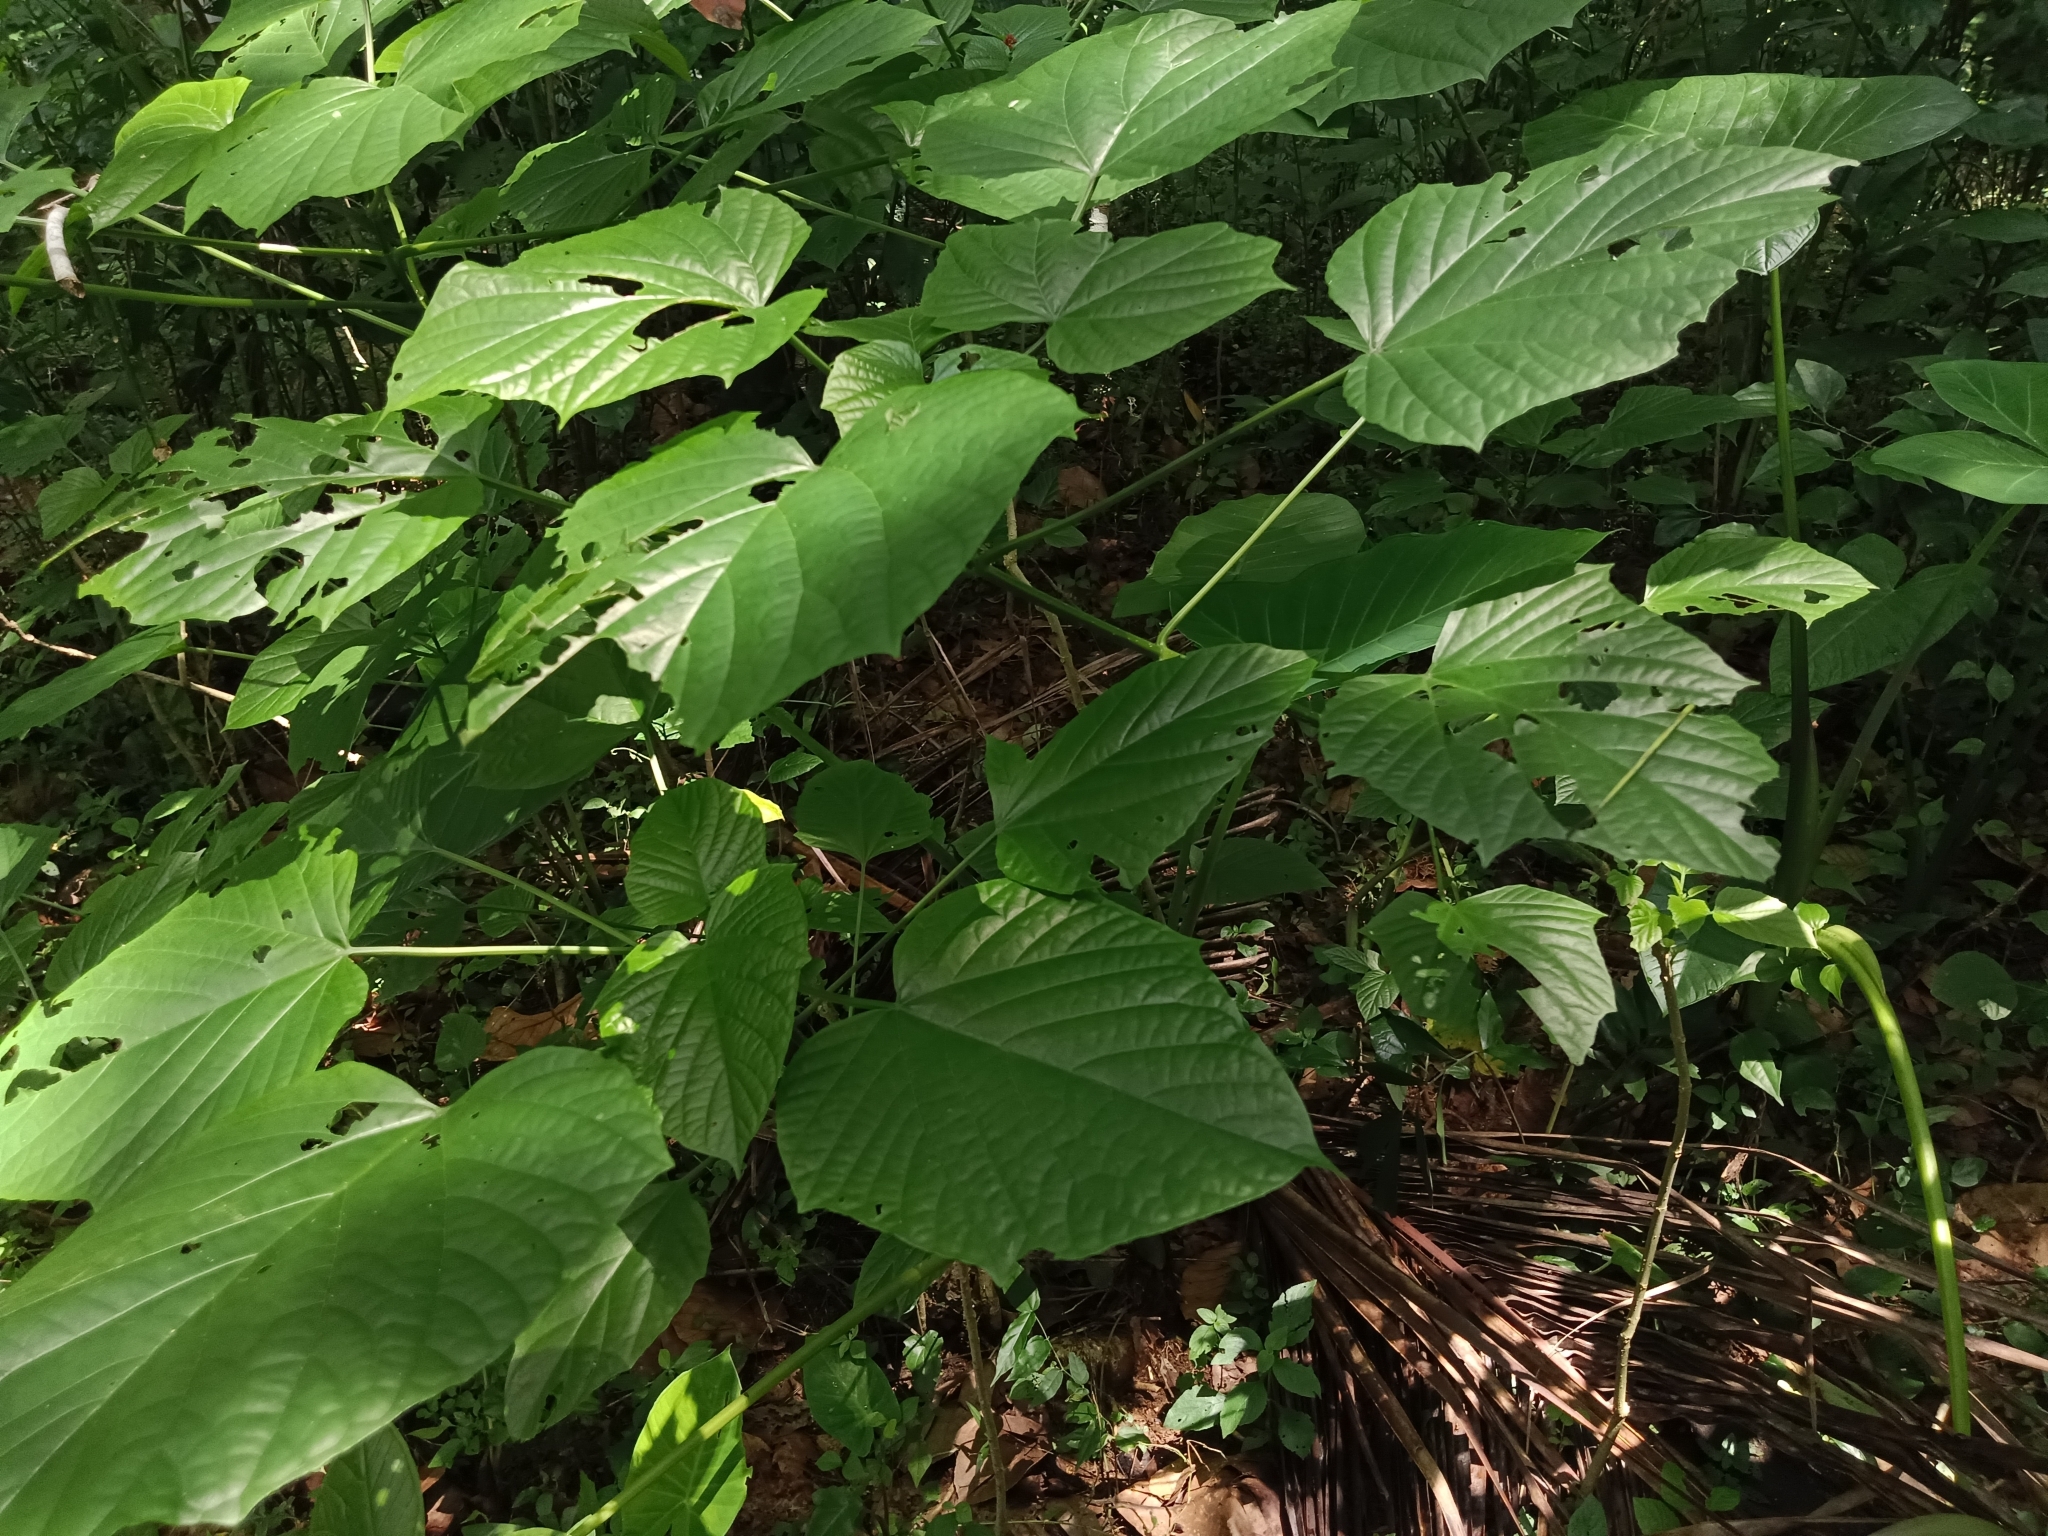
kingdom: Plantae
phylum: Tracheophyta
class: Magnoliopsida
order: Lamiales
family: Lamiaceae
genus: Clerodendrum
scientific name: Clerodendrum paniculatum
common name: Pagoda-flower
